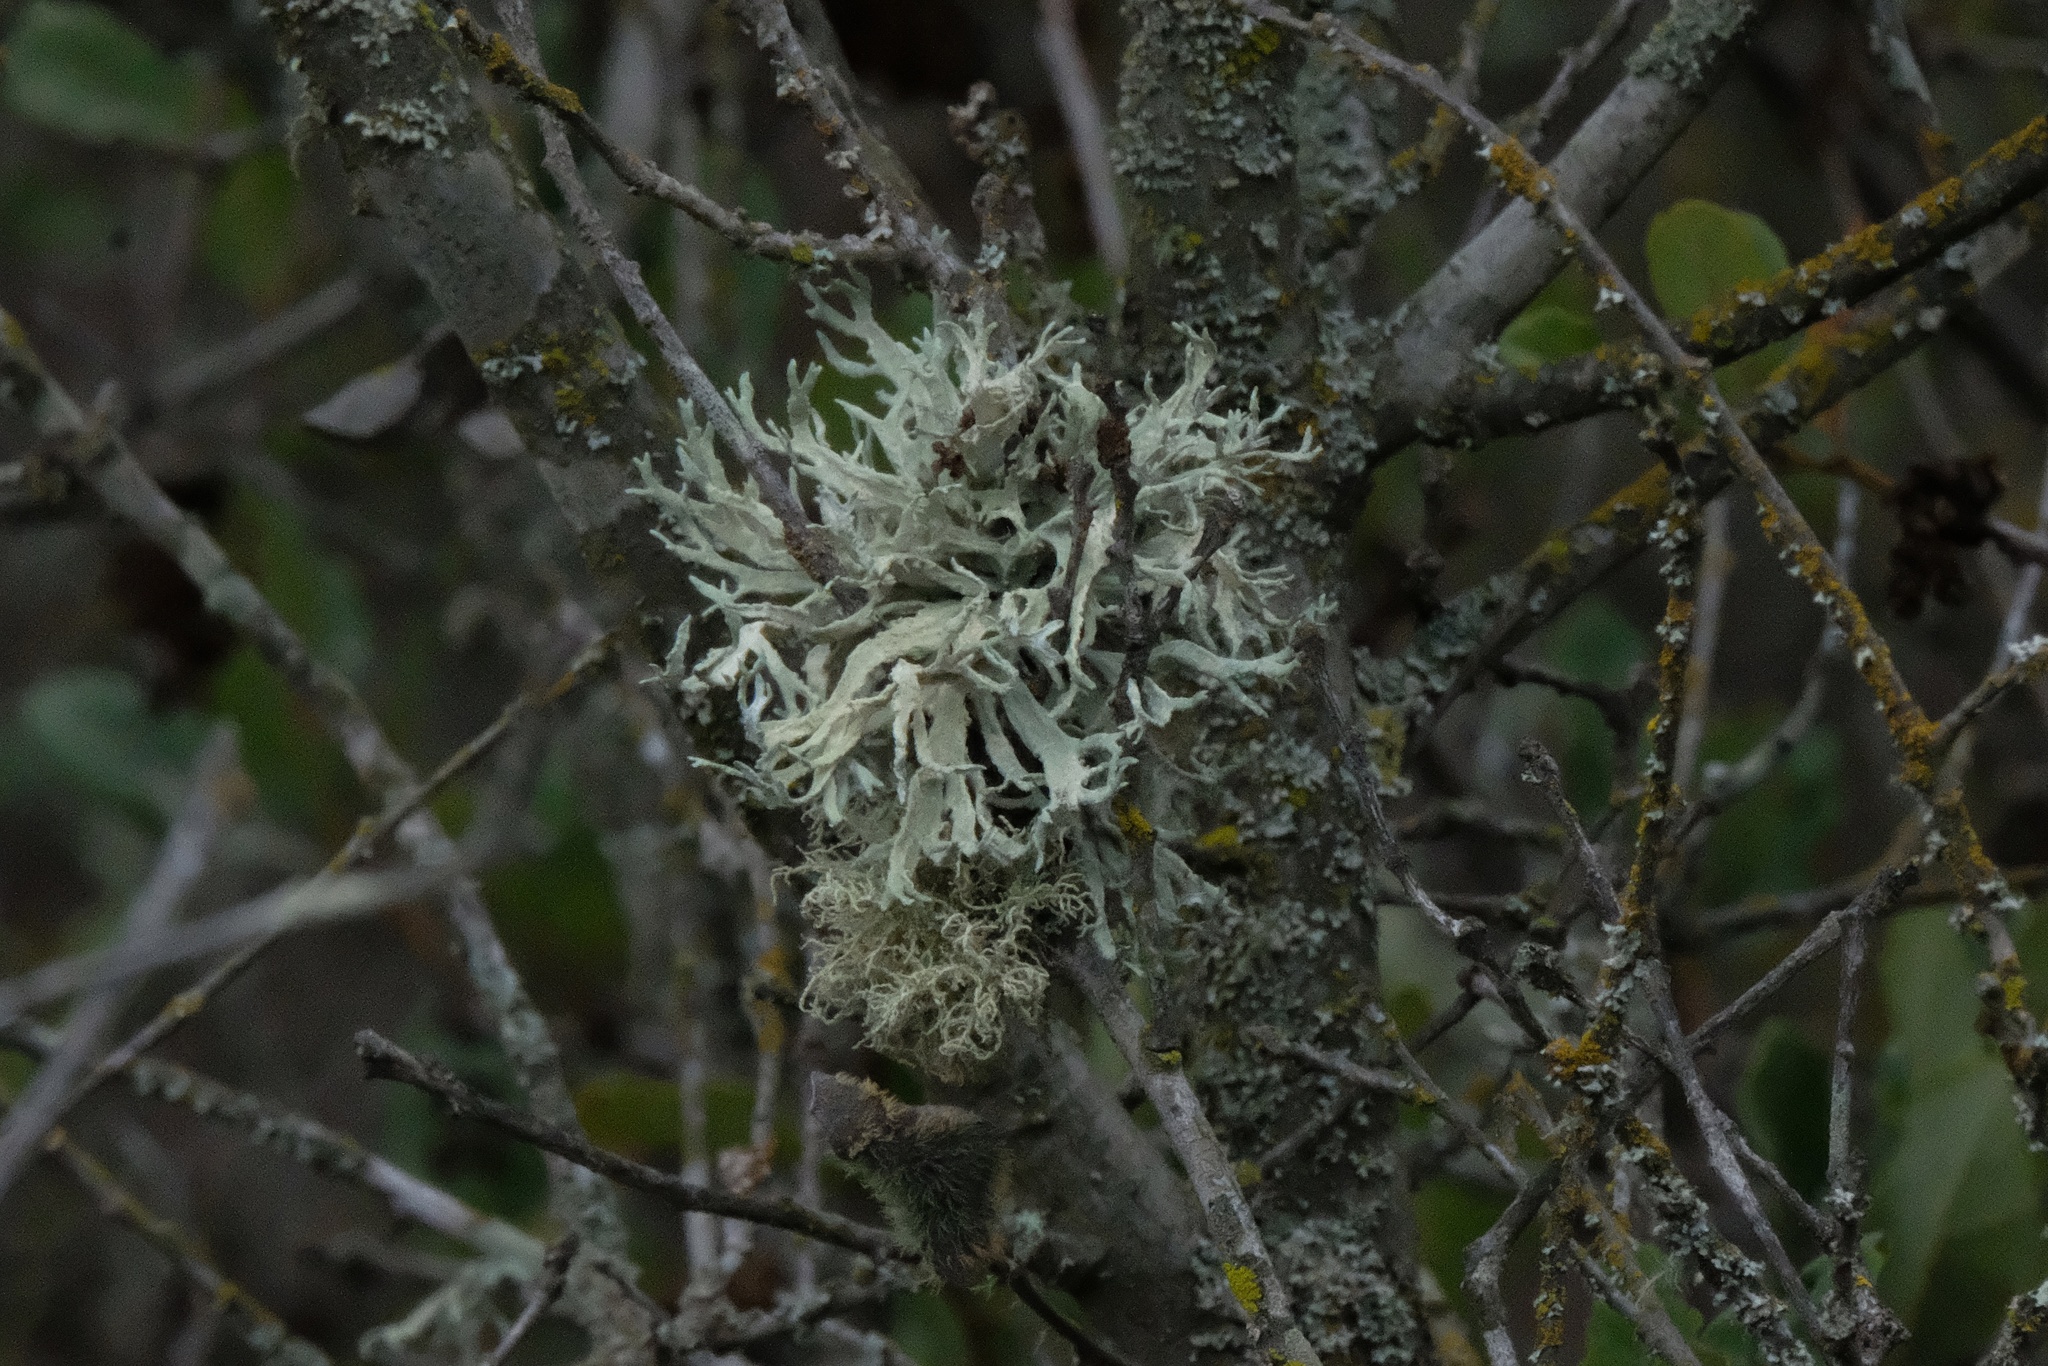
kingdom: Fungi
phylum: Ascomycota
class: Lecanoromycetes
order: Lecanorales
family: Parmeliaceae
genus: Evernia
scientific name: Evernia prunastri
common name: Oak moss
